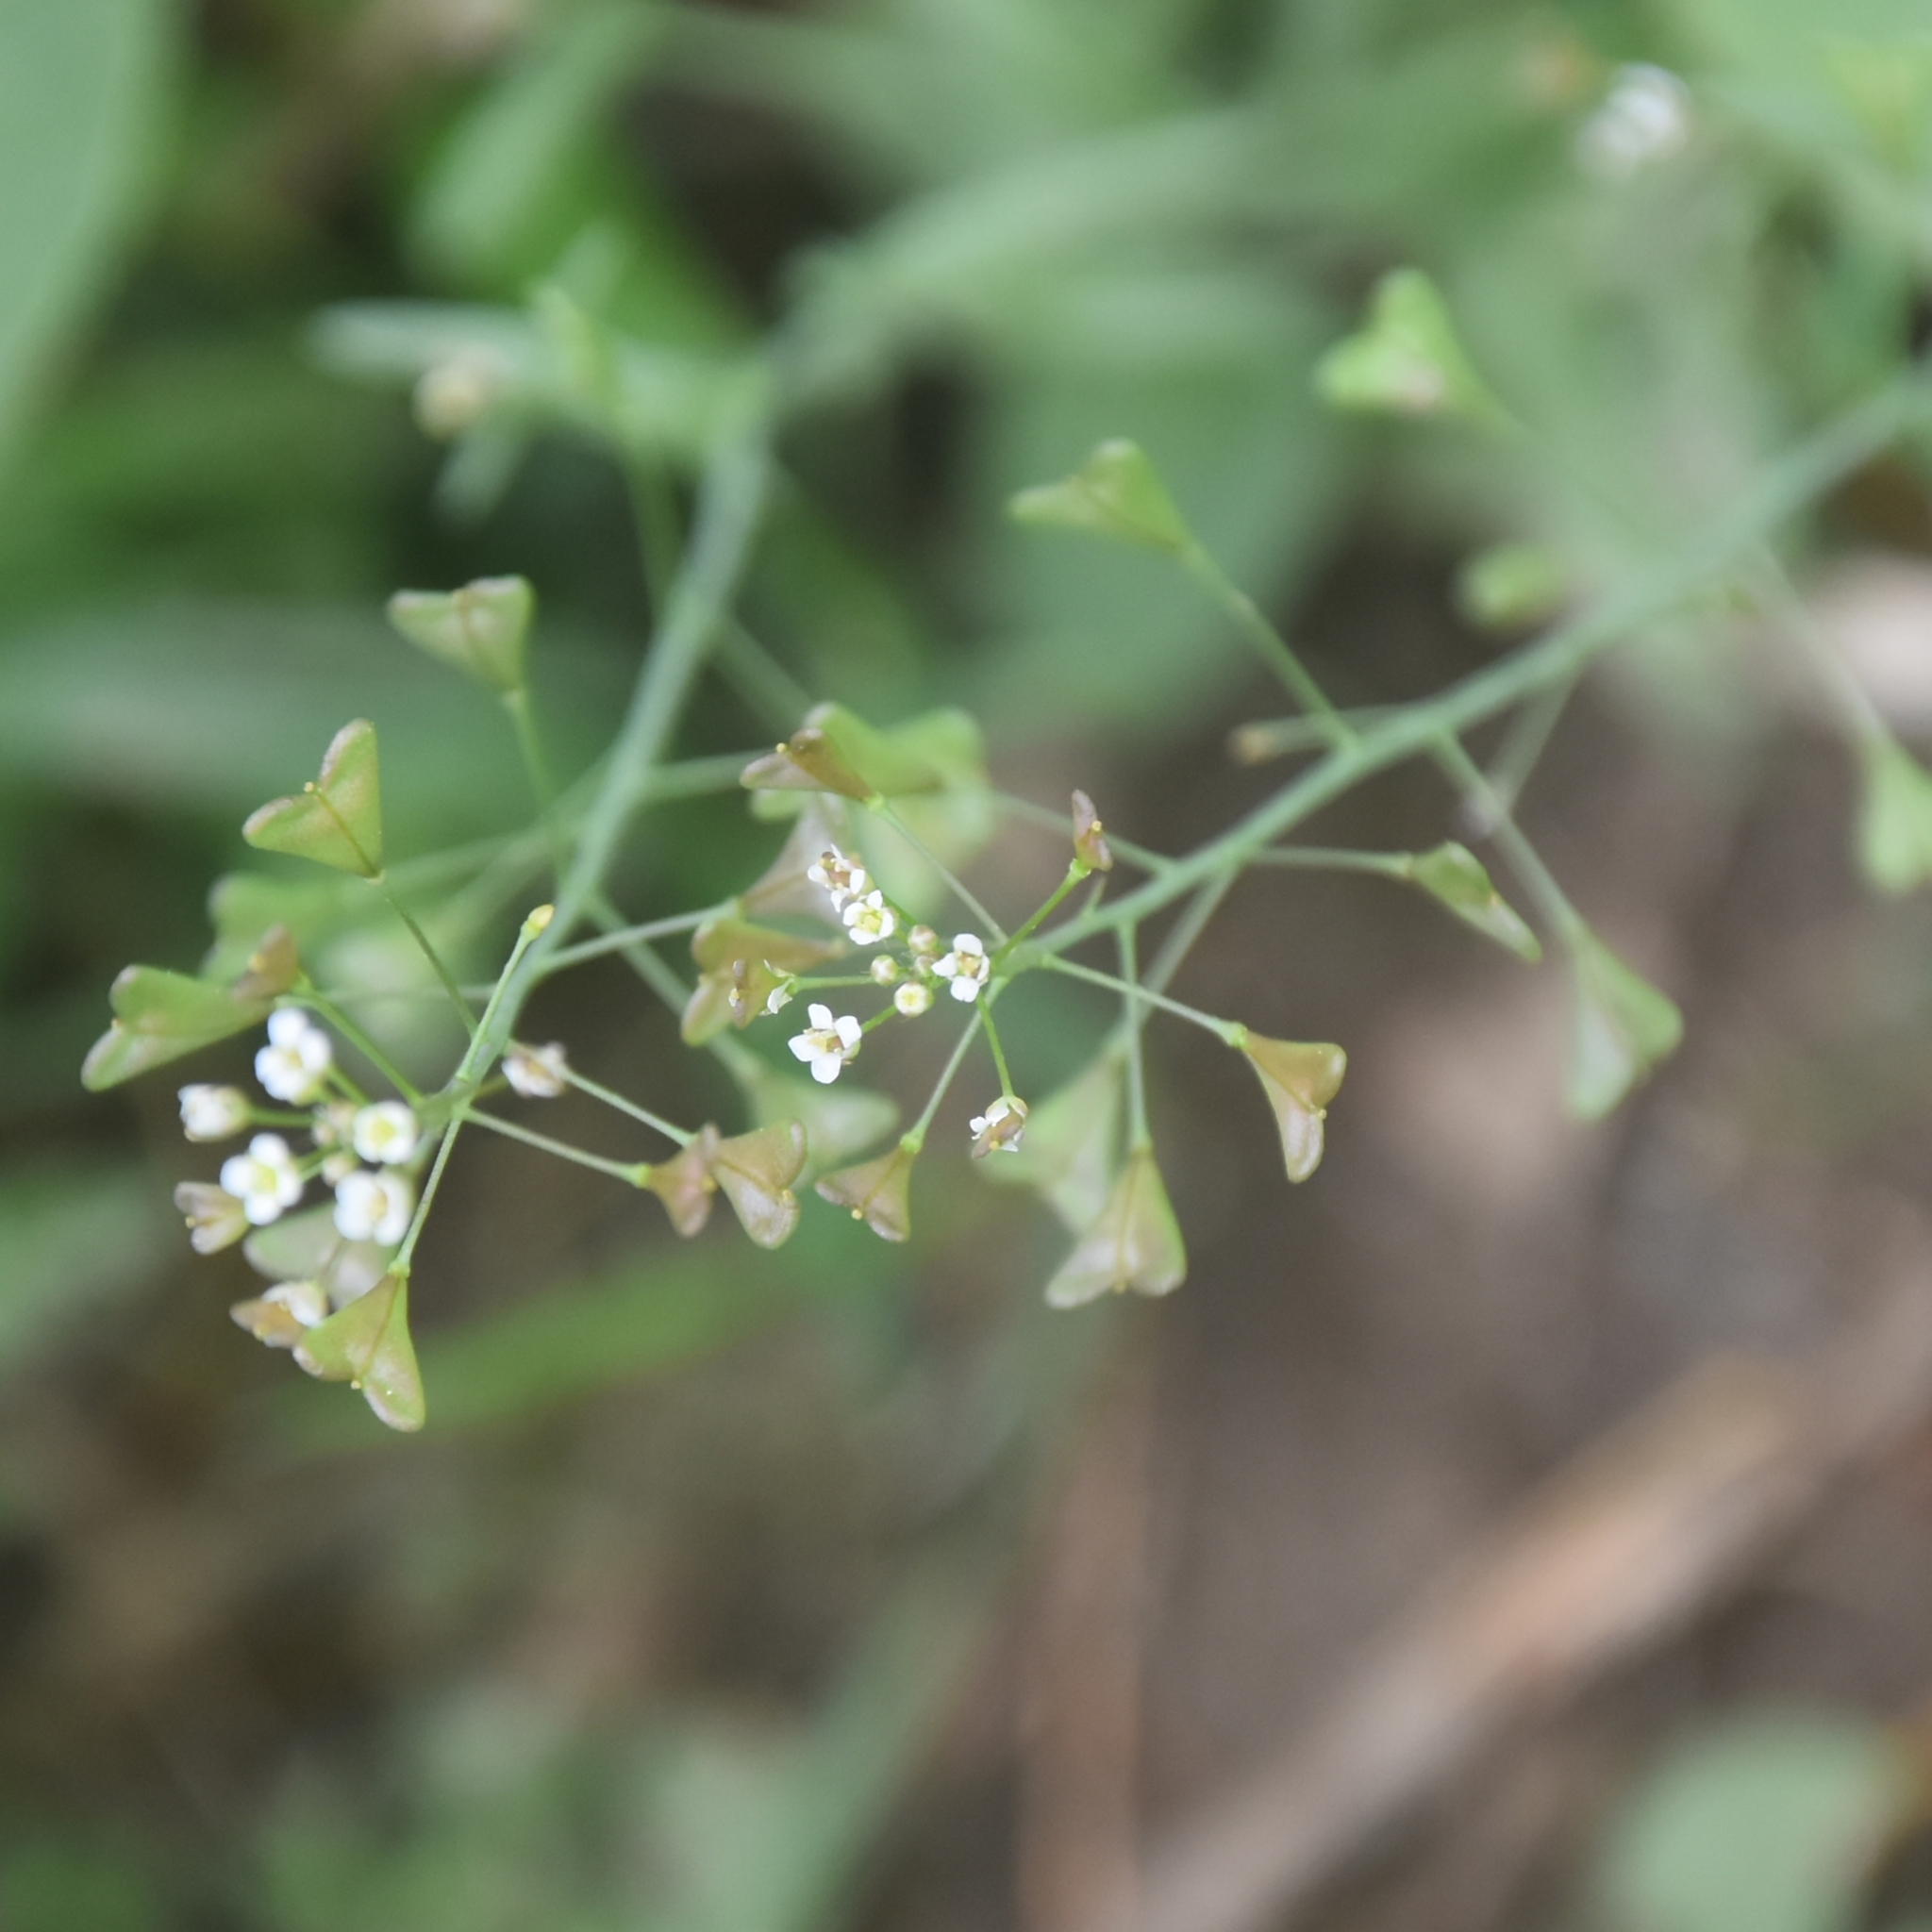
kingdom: Plantae
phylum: Tracheophyta
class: Magnoliopsida
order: Brassicales
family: Brassicaceae
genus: Capsella
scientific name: Capsella bursa-pastoris
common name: Shepherd's purse
